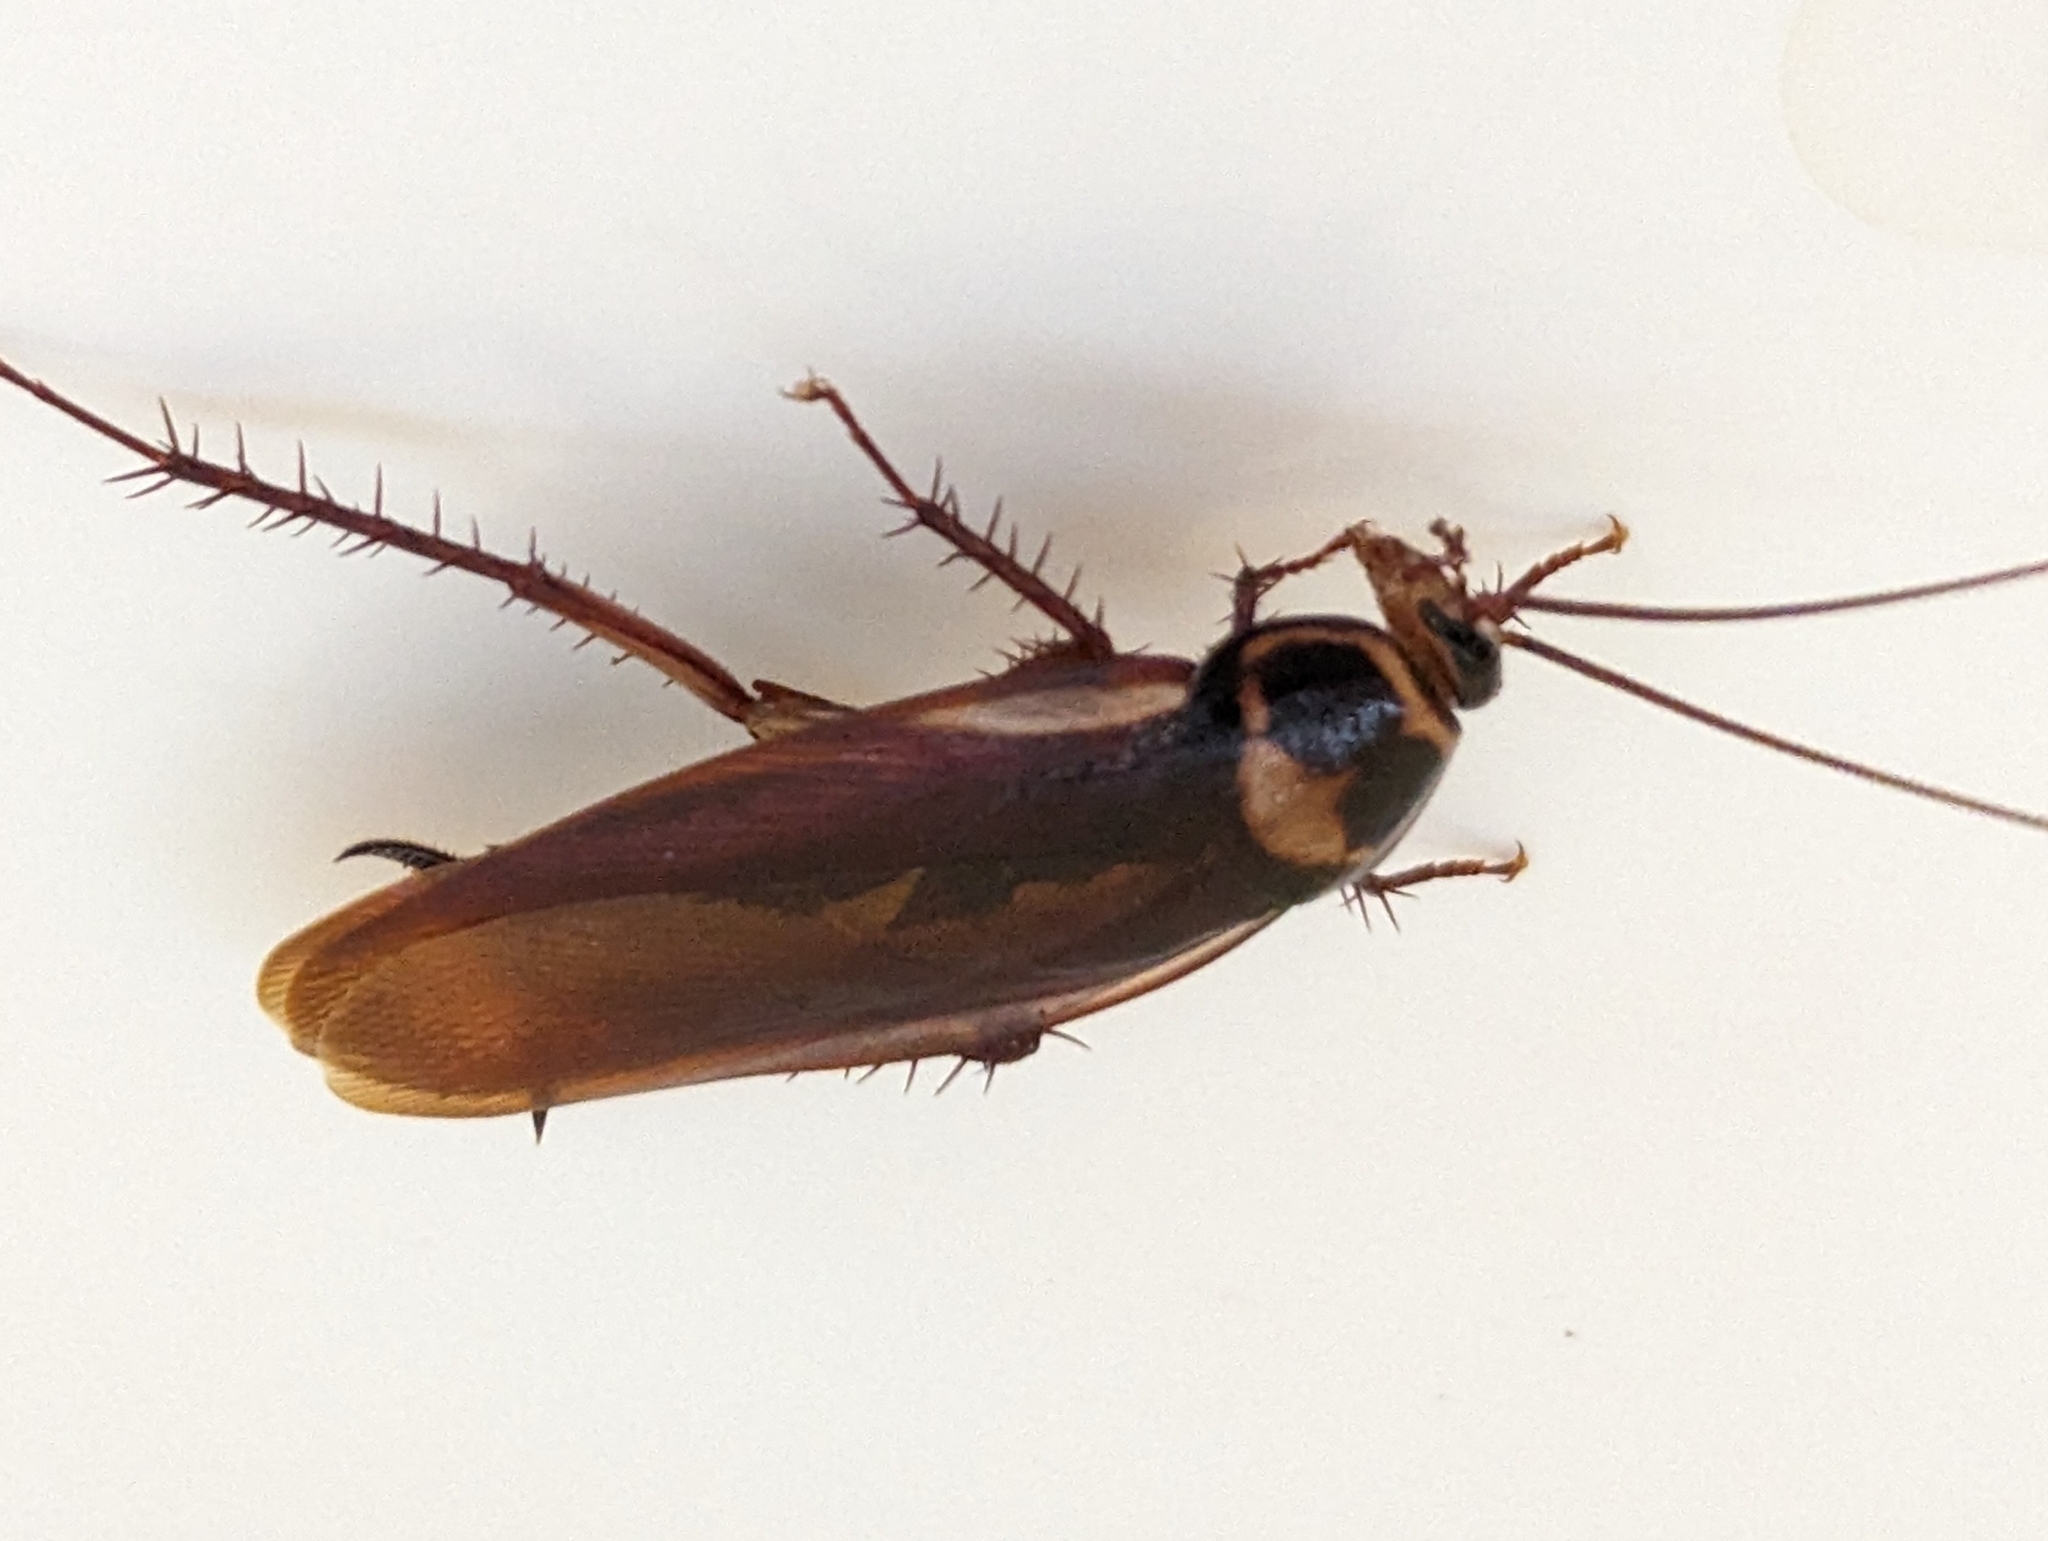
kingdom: Animalia
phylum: Arthropoda
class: Insecta
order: Blattodea
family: Blattidae
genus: Periplaneta
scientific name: Periplaneta australasiae
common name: Australian cockroach
